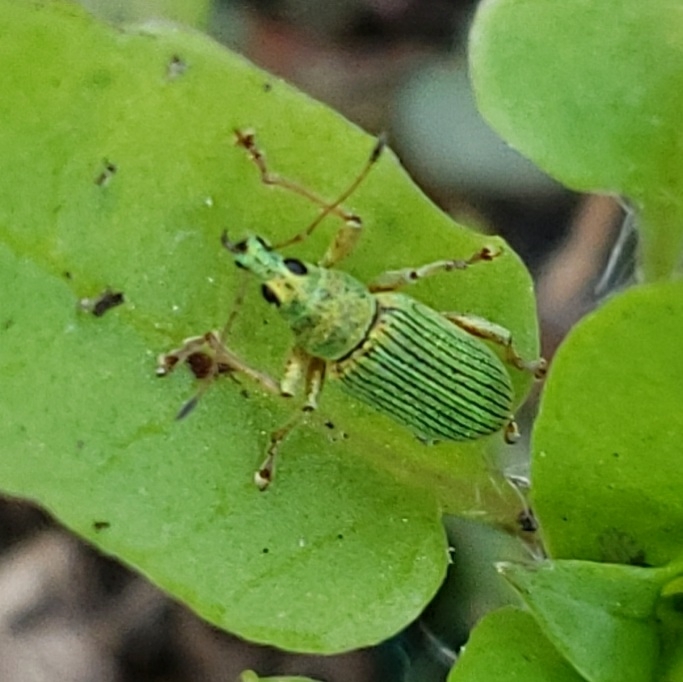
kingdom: Animalia
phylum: Arthropoda
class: Insecta
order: Coleoptera
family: Curculionidae
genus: Polydrusus
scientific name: Polydrusus formosus
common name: Weevil
